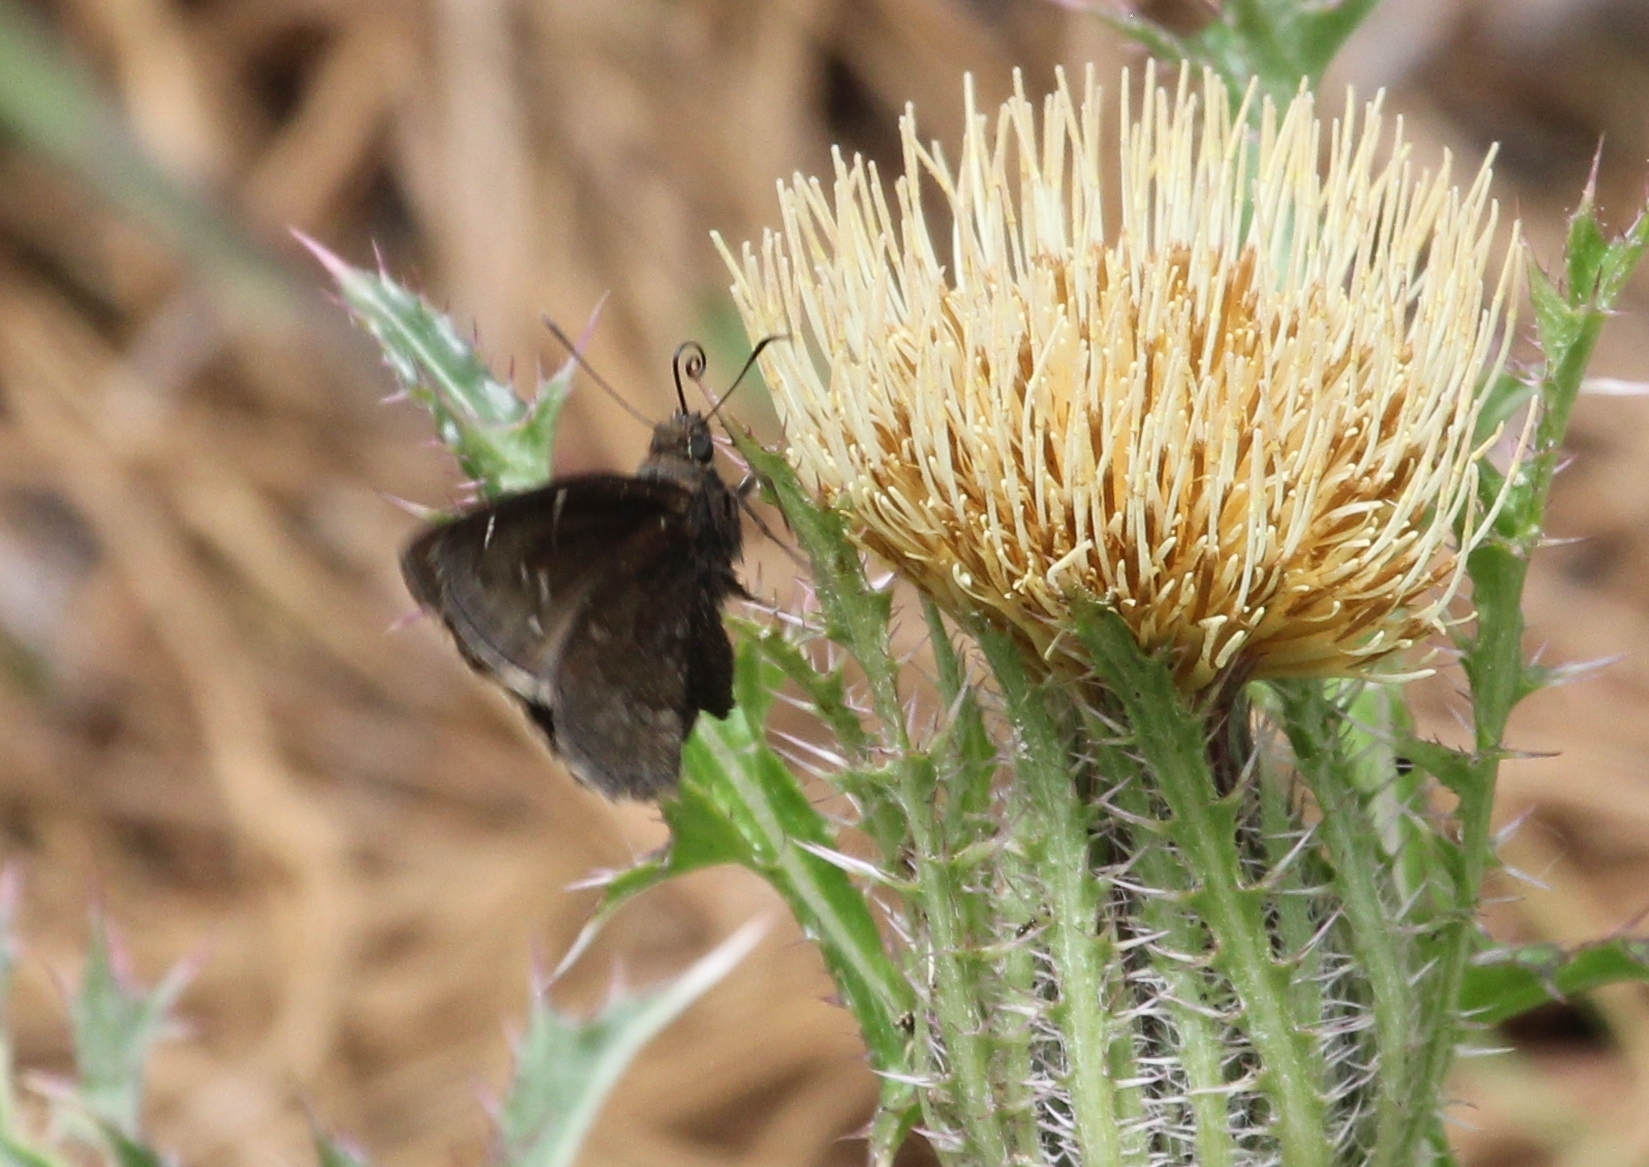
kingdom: Animalia
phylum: Arthropoda
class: Insecta
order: Lepidoptera
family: Hesperiidae
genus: Thorybes
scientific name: Thorybes pylades
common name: Northern cloudywing
